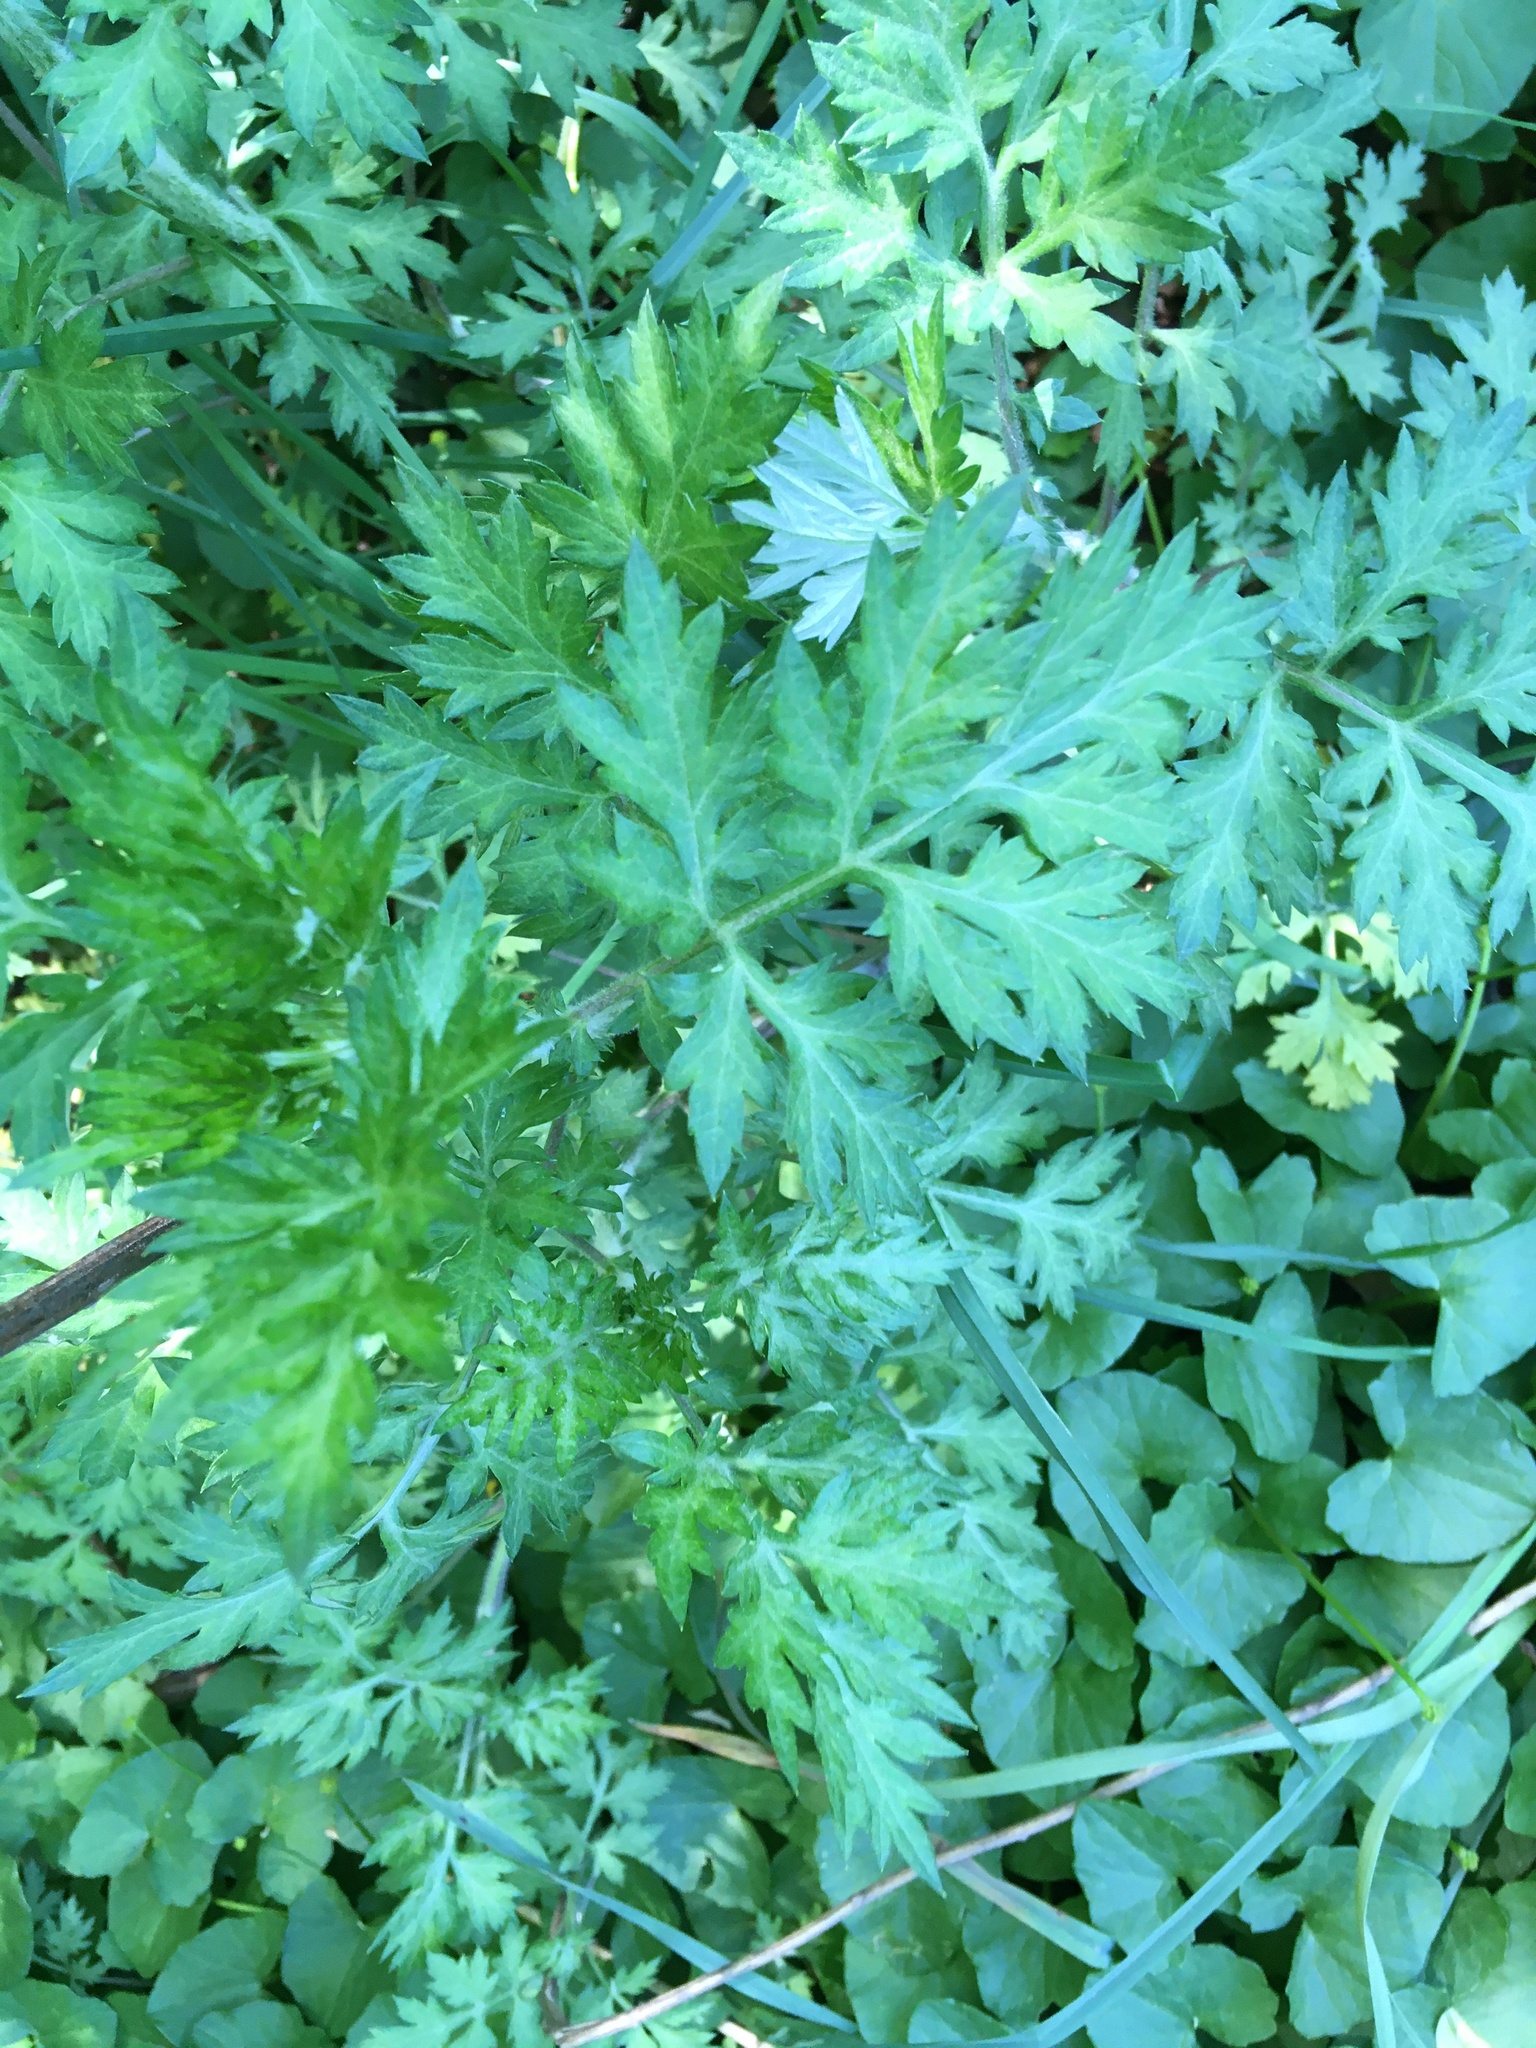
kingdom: Plantae
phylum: Tracheophyta
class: Magnoliopsida
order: Asterales
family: Asteraceae
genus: Artemisia
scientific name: Artemisia vulgaris
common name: Mugwort
